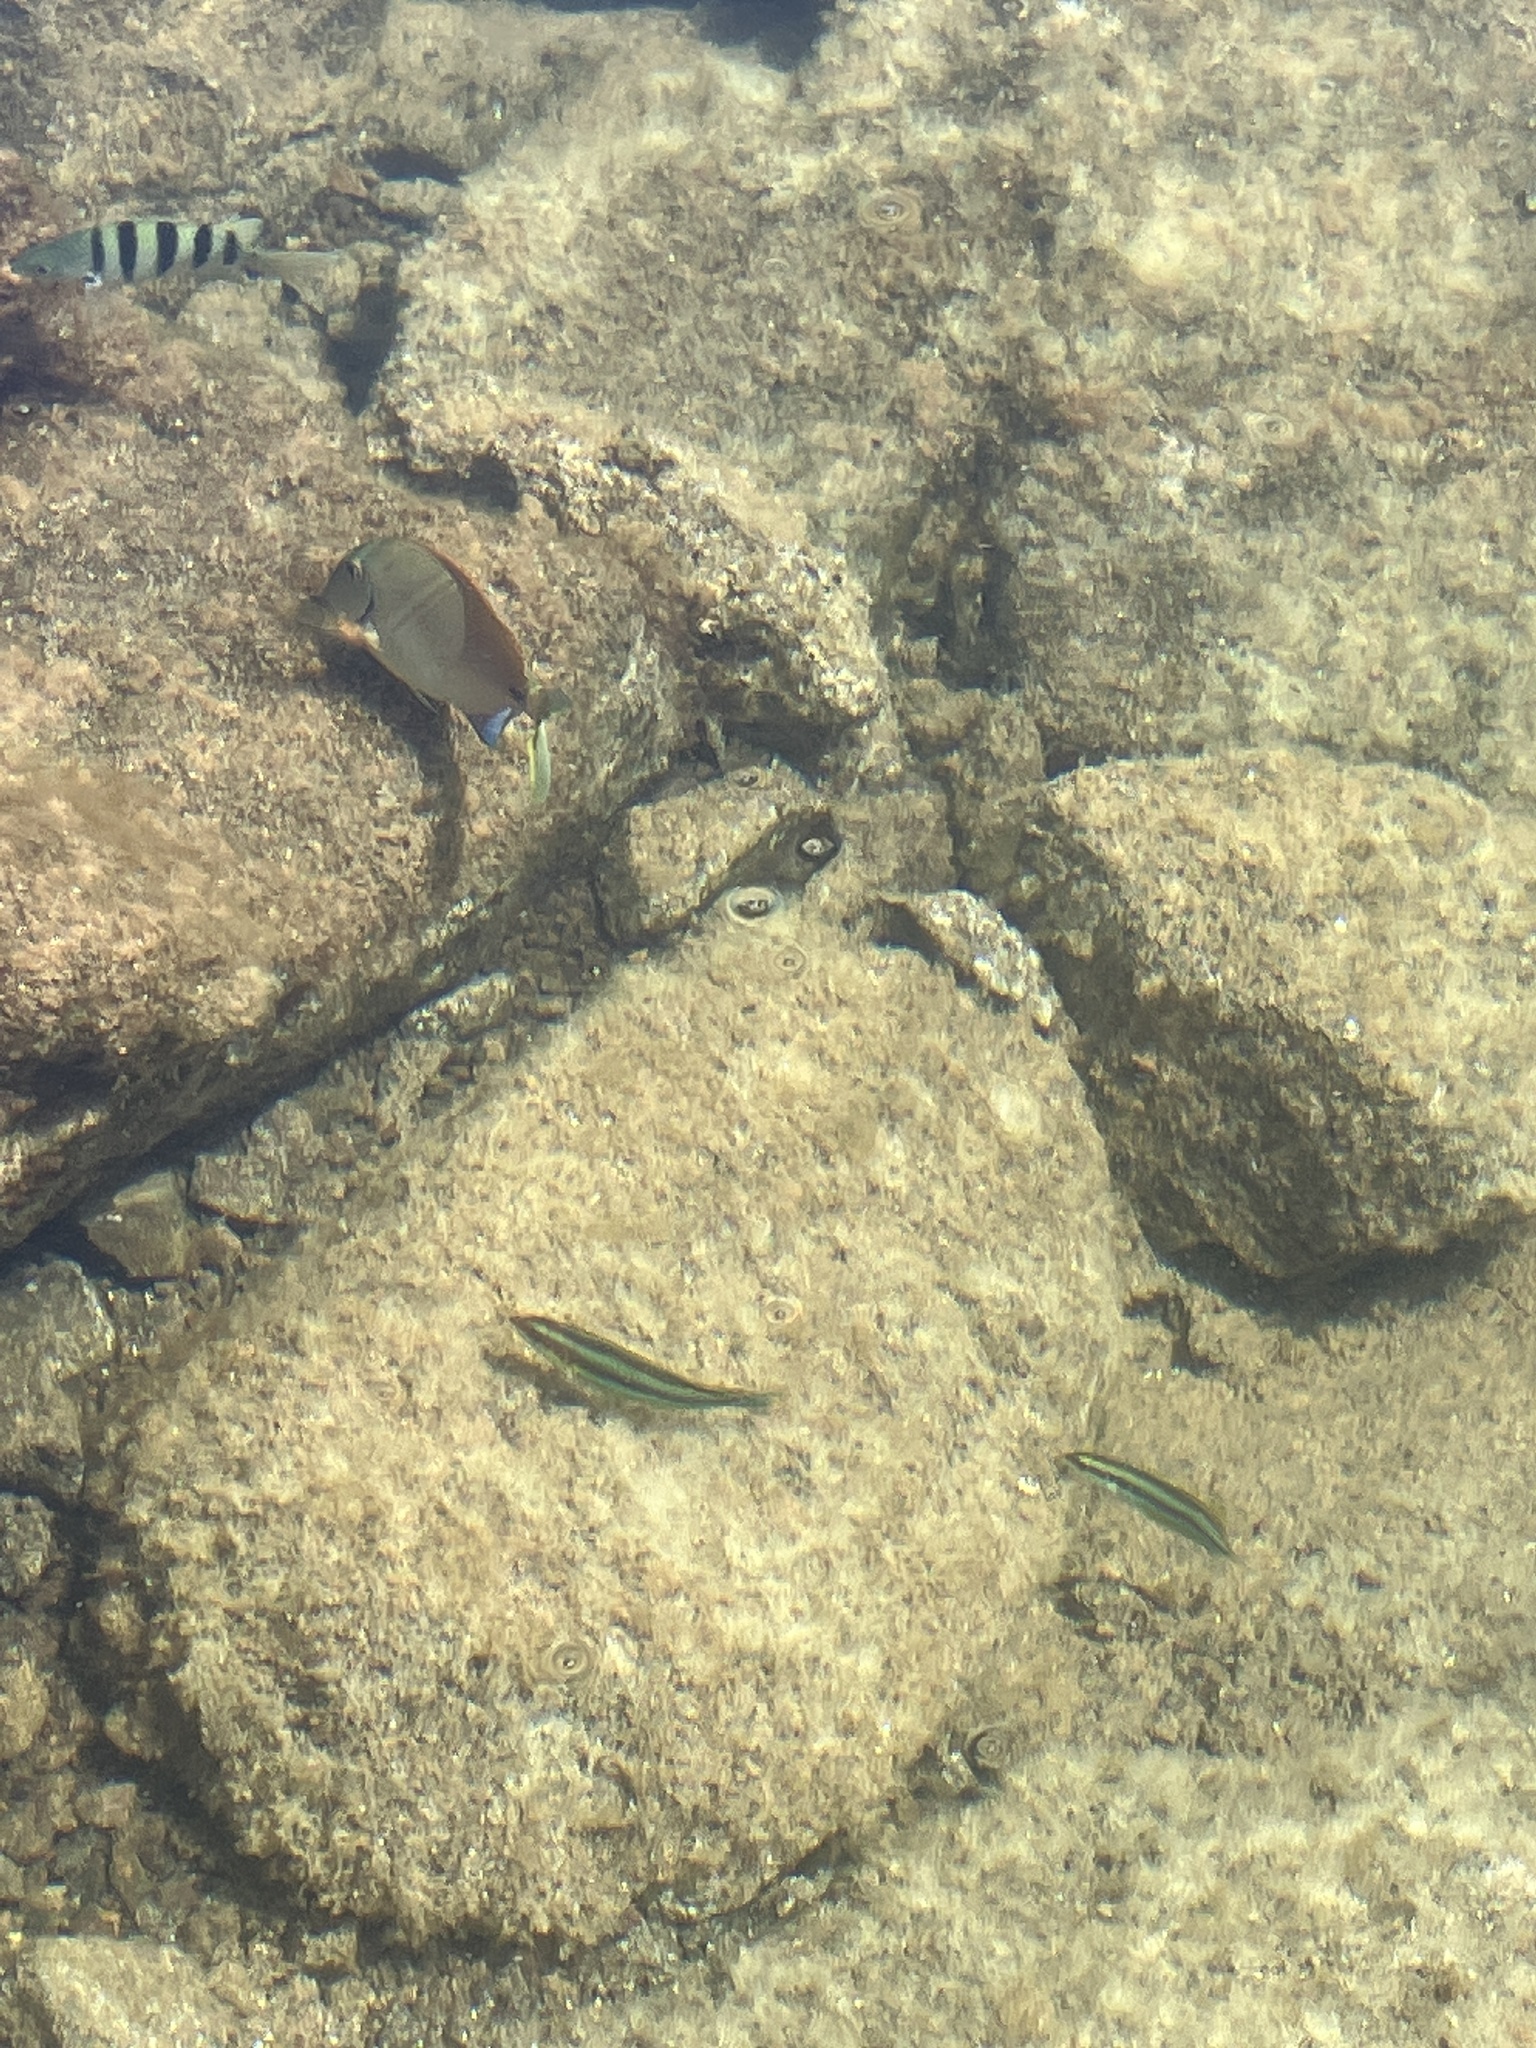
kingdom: Animalia
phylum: Chordata
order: Perciformes
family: Labridae
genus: Thalassoma
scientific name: Thalassoma sanctaehelenae
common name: Greenfish
